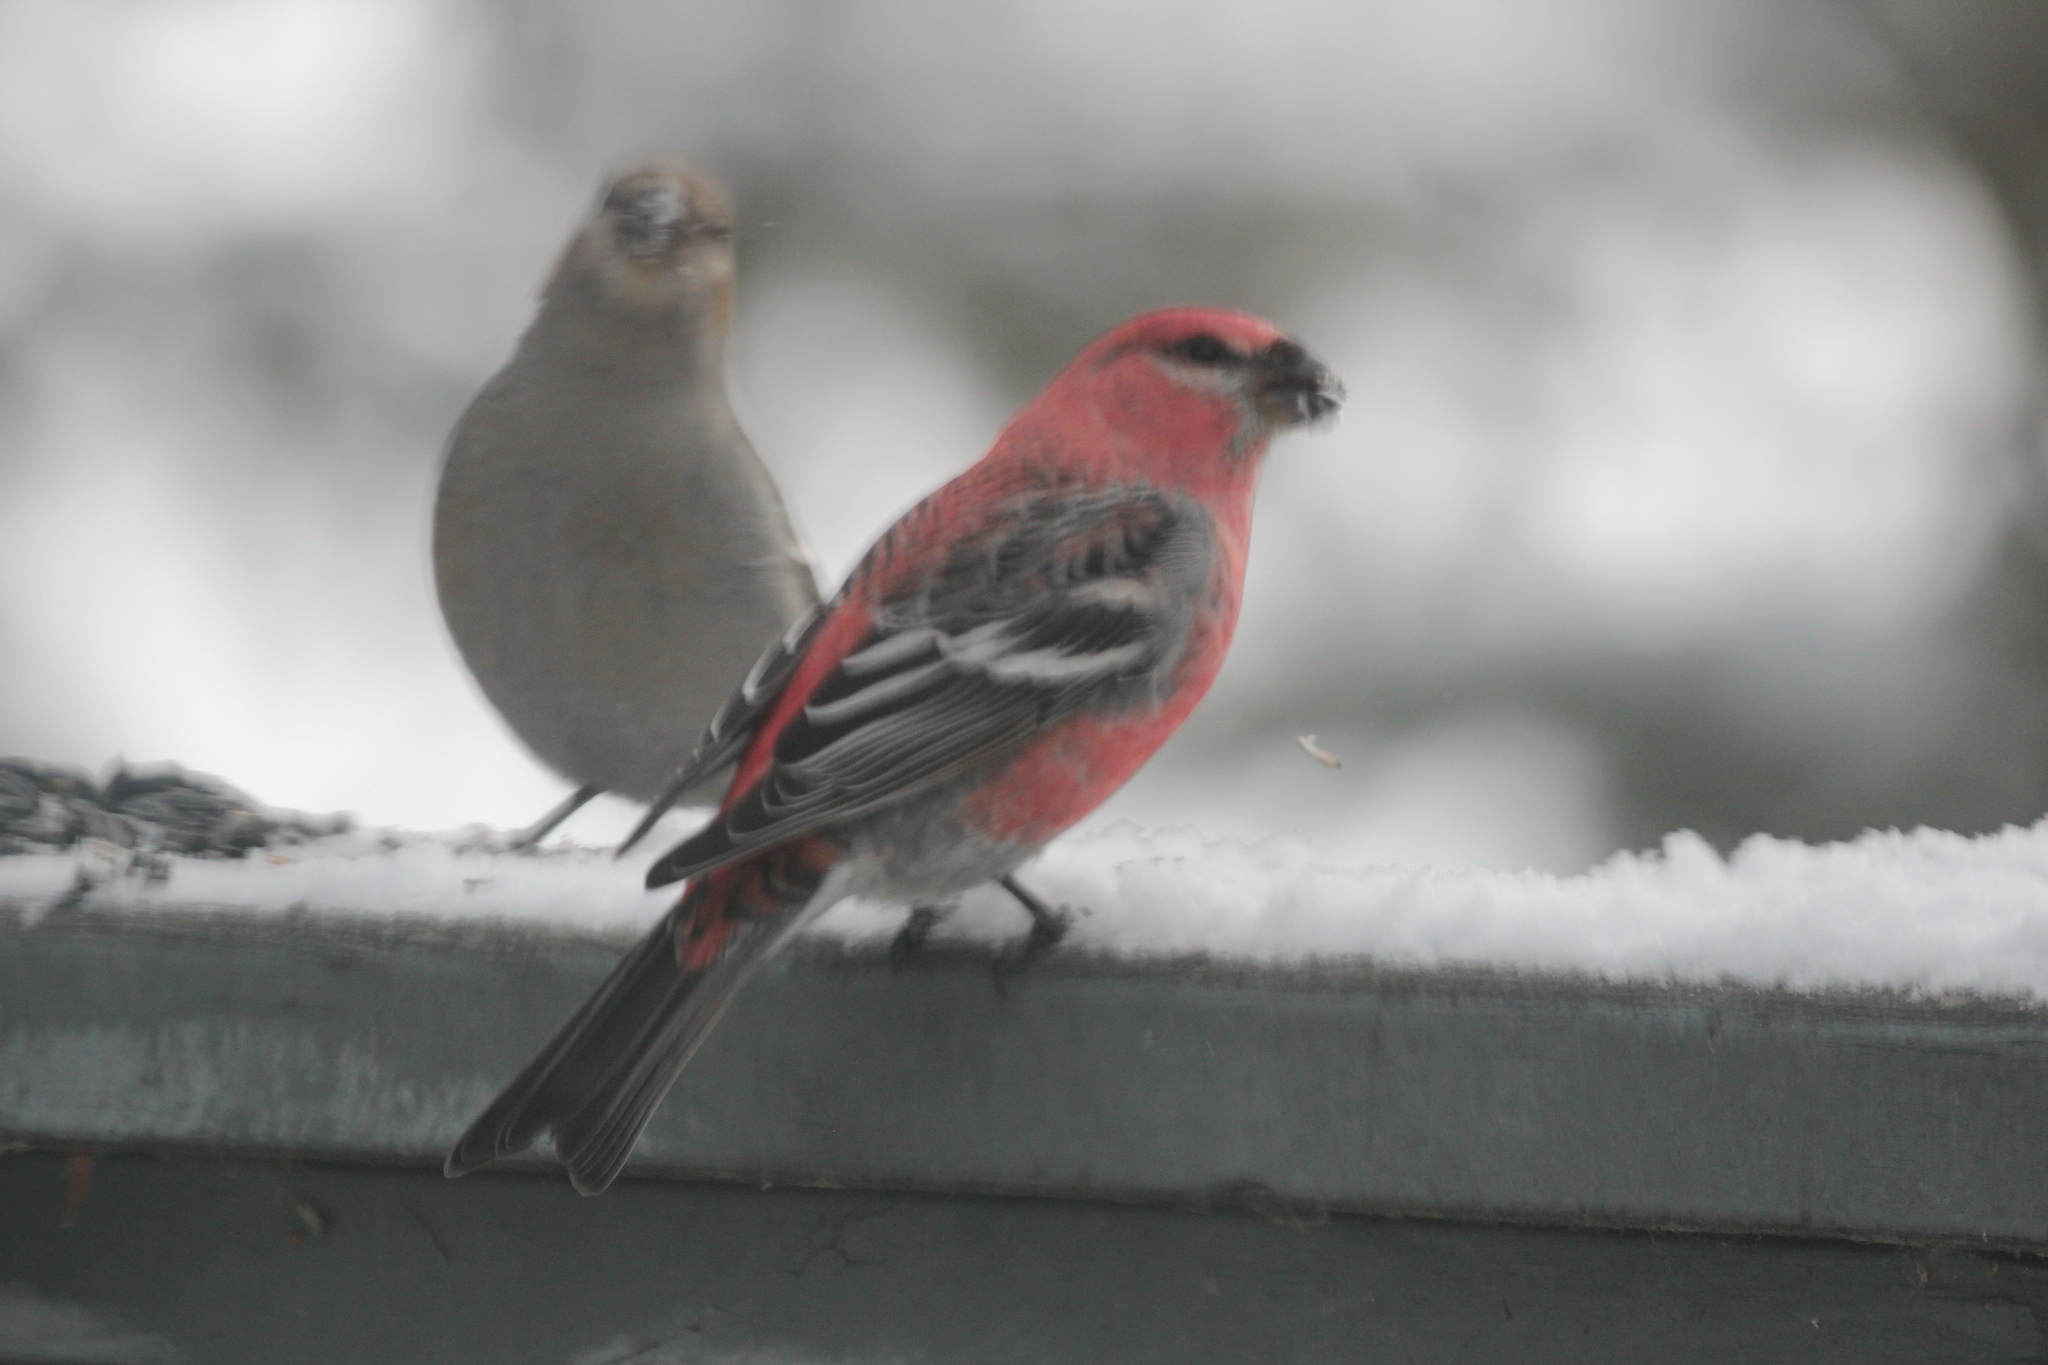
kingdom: Animalia
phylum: Chordata
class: Aves
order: Passeriformes
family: Fringillidae
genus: Pinicola
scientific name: Pinicola enucleator
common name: Pine grosbeak
